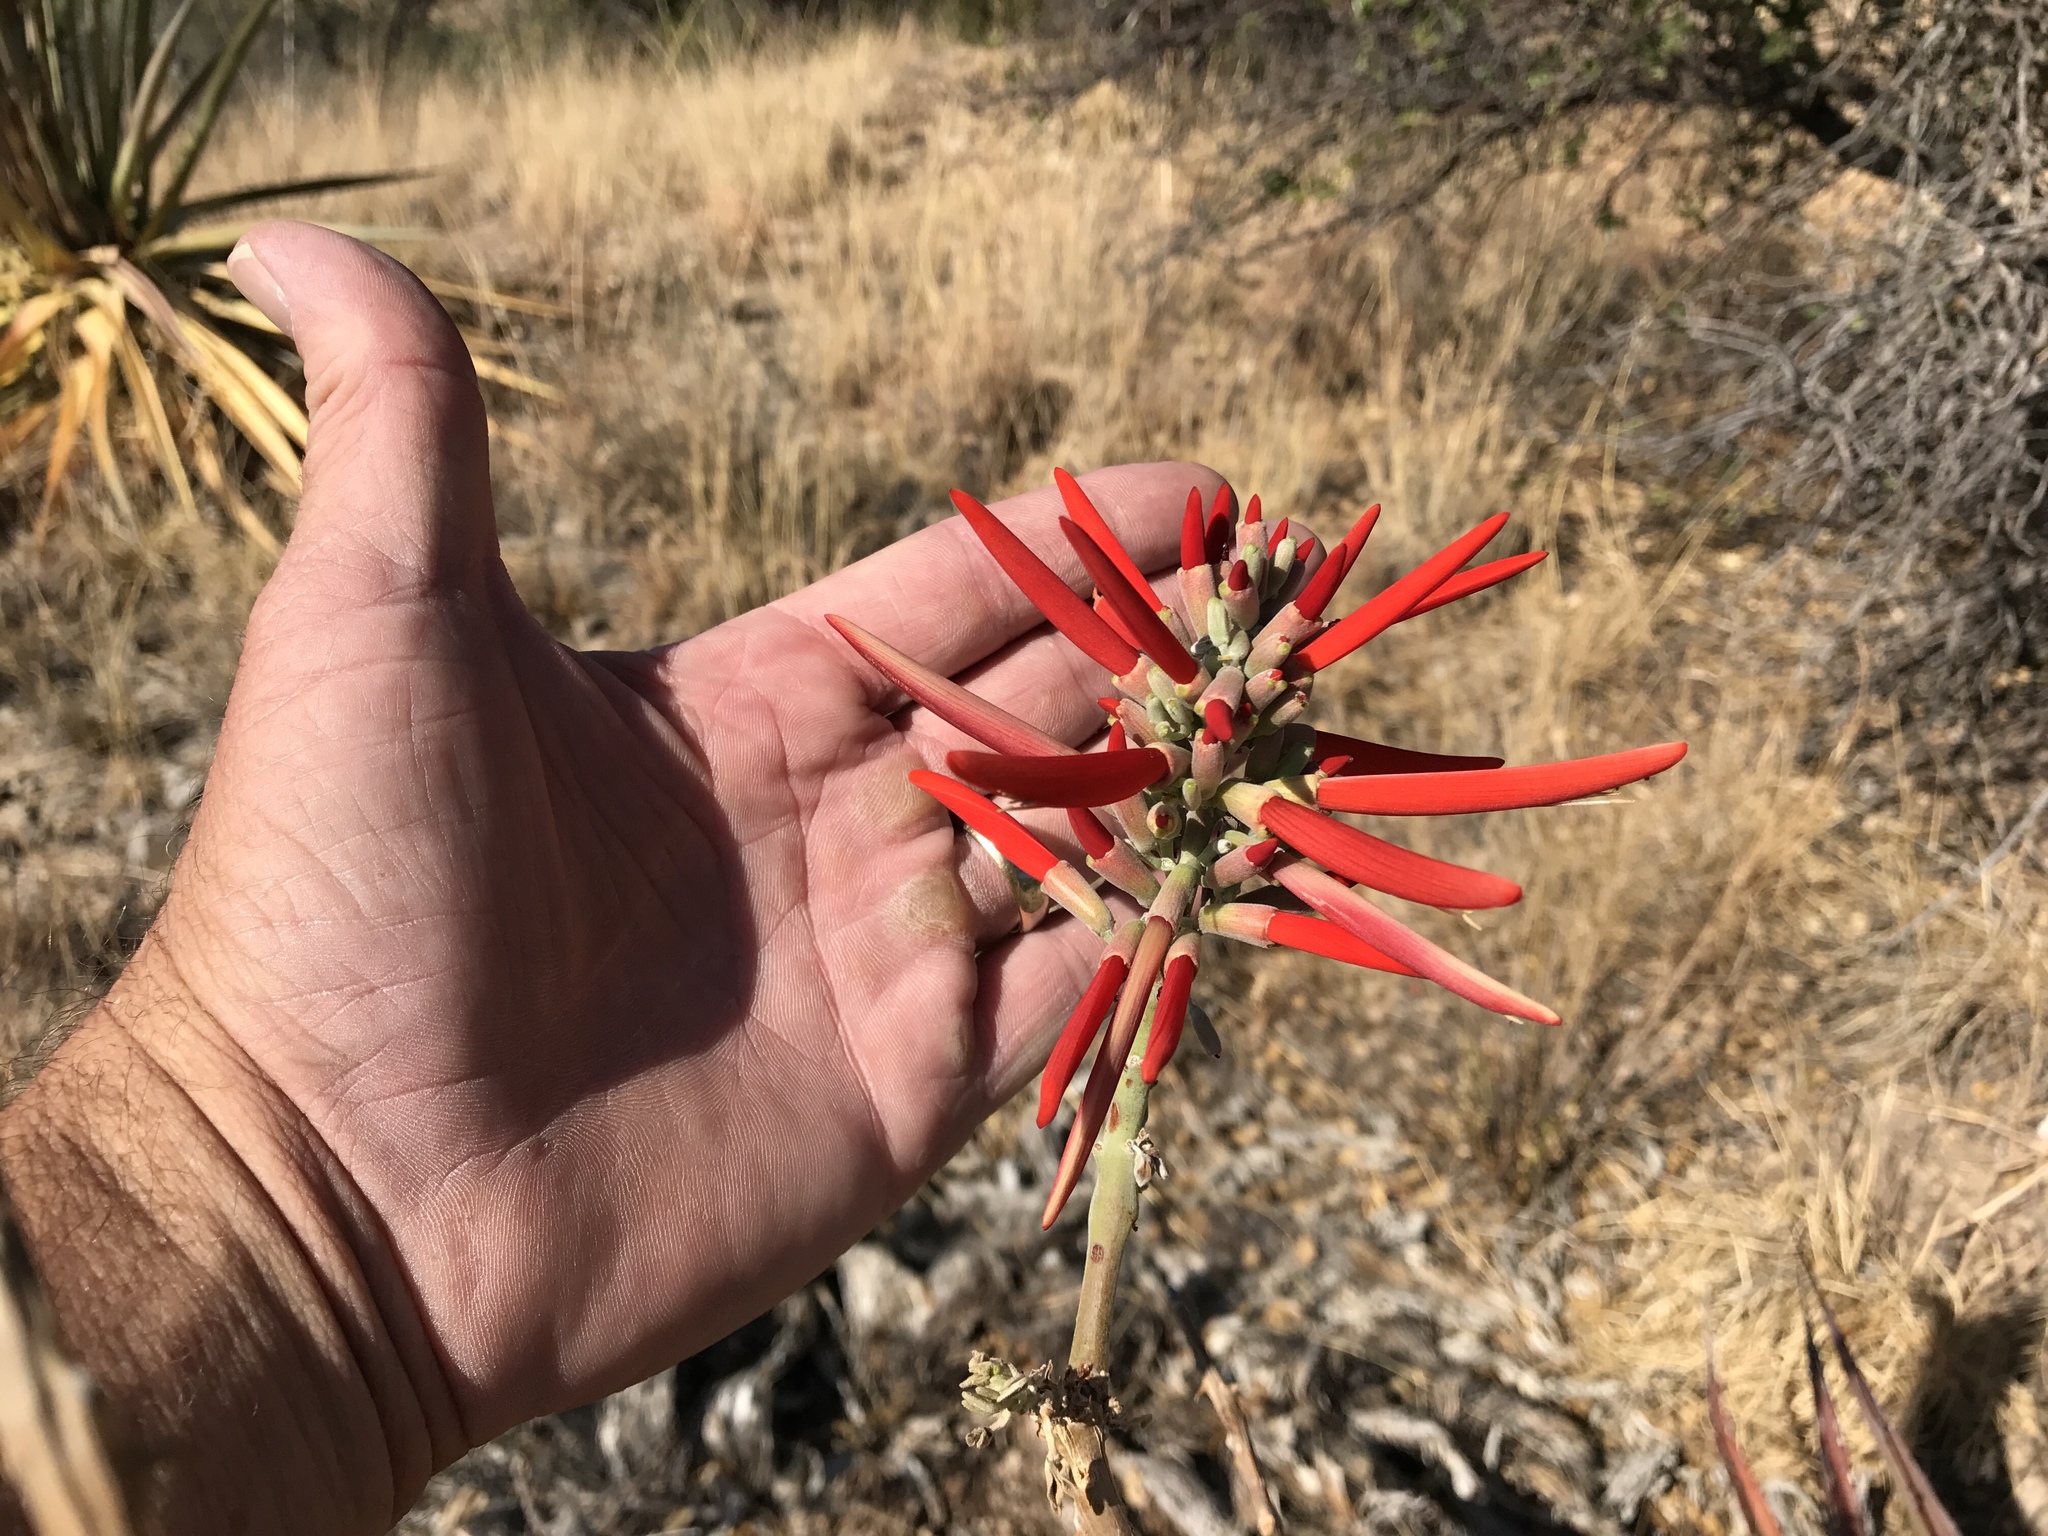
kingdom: Plantae
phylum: Tracheophyta
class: Magnoliopsida
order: Fabales
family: Fabaceae
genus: Erythrina
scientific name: Erythrina flabelliformis
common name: Chilicote
